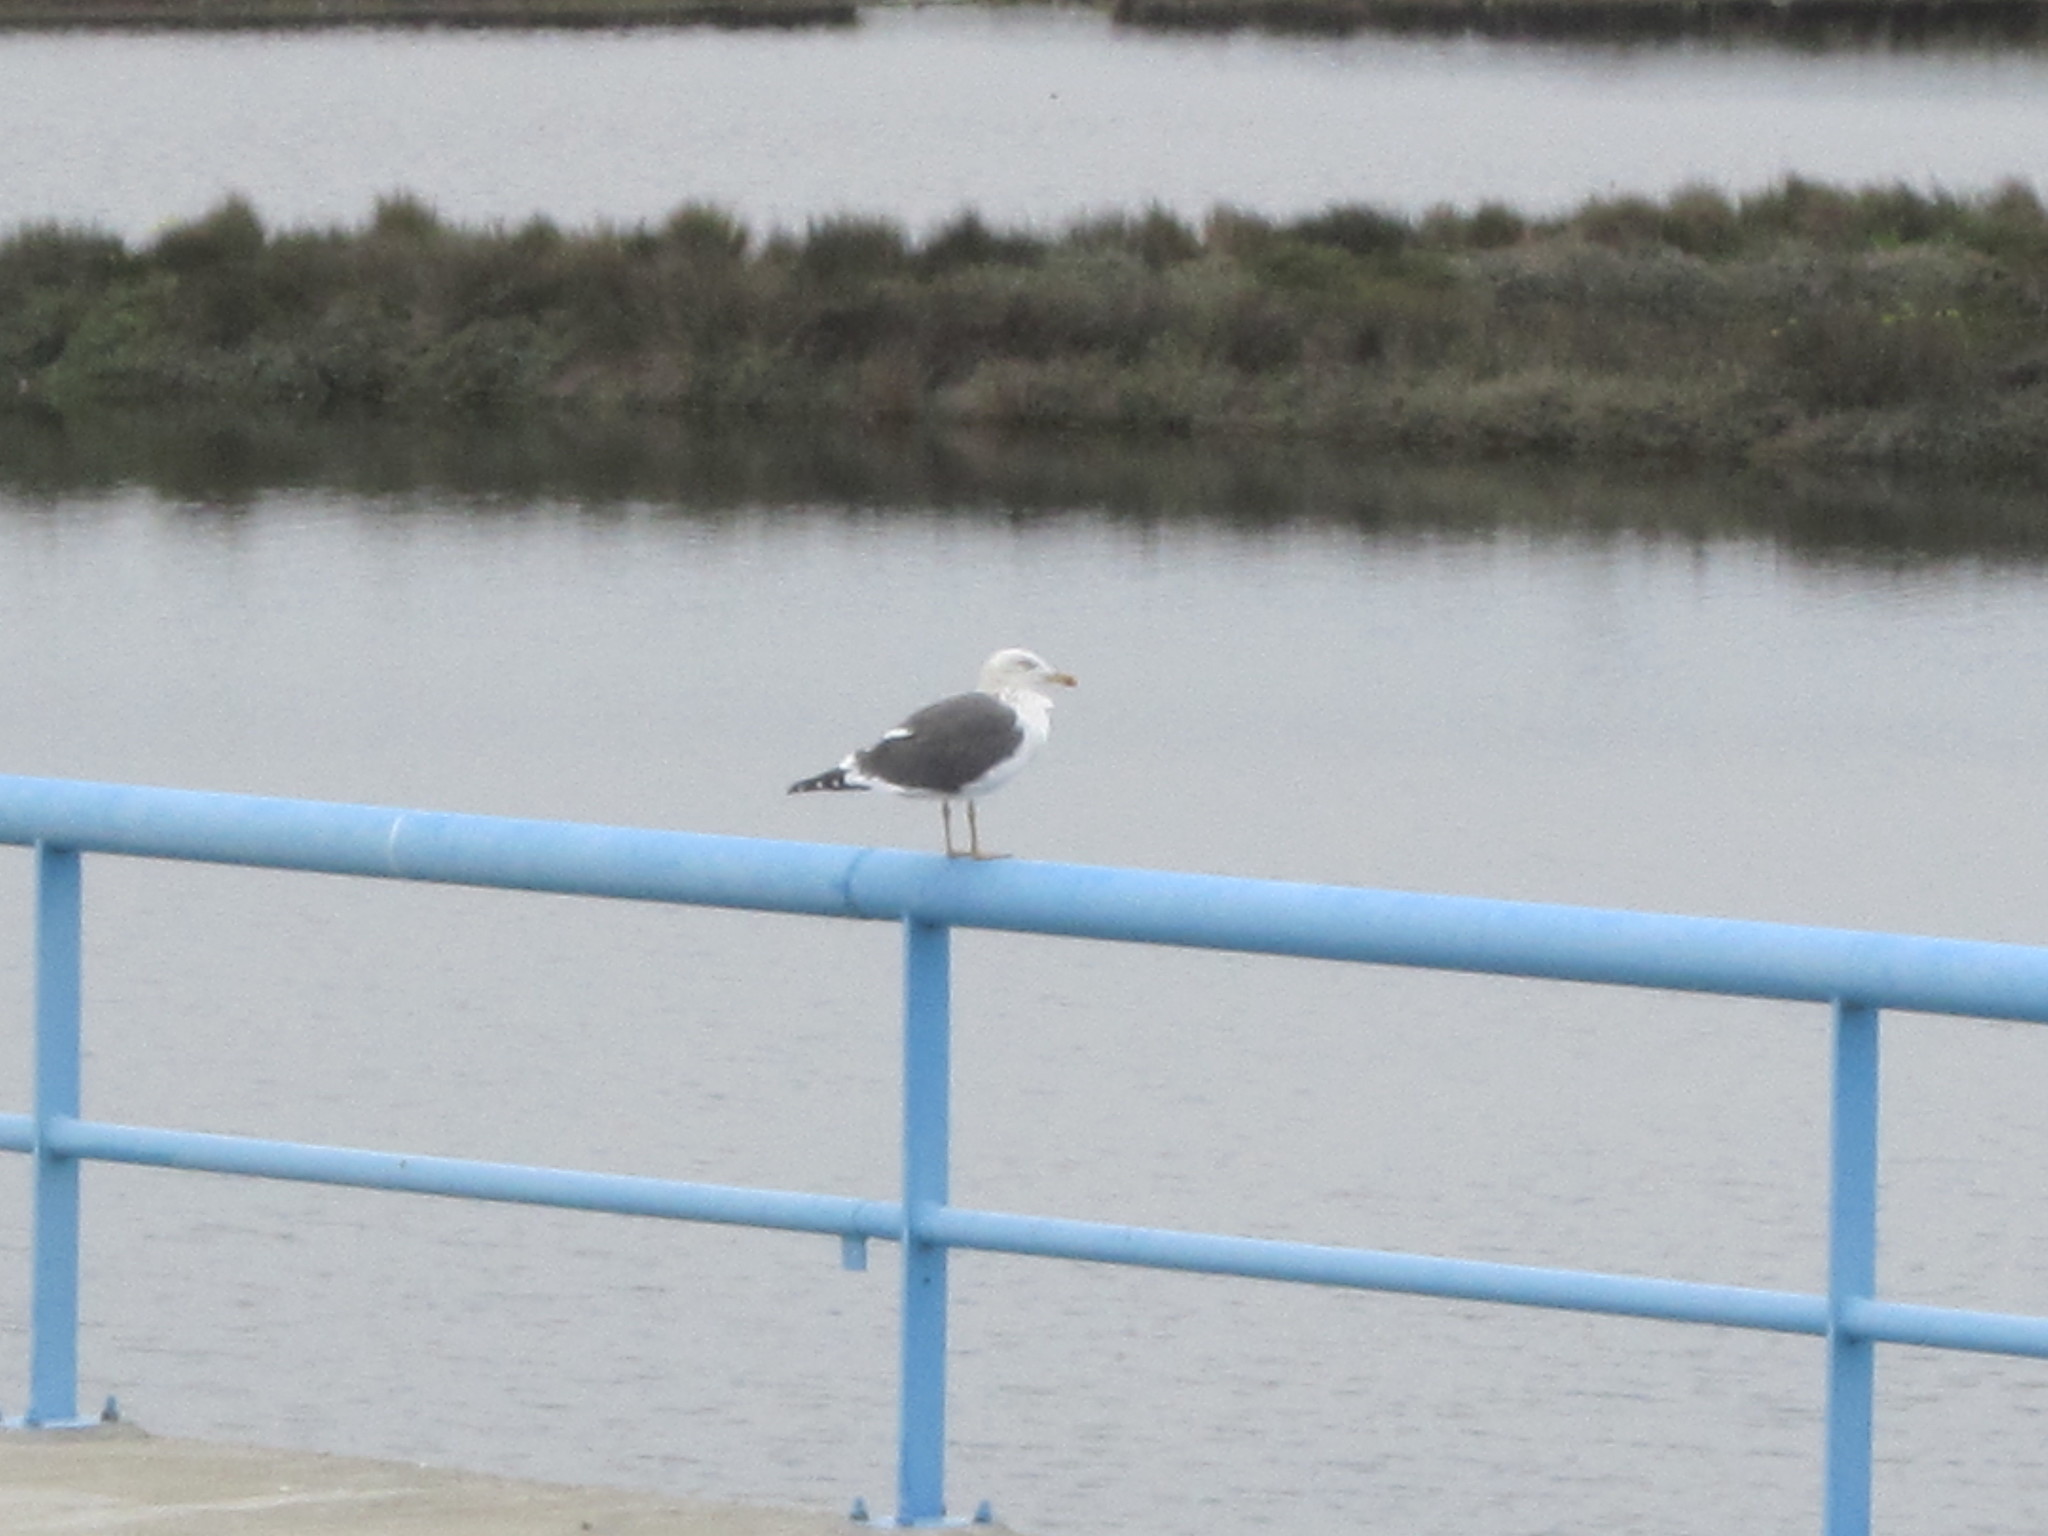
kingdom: Animalia
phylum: Chordata
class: Aves
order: Charadriiformes
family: Laridae
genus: Larus
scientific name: Larus fuscus
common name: Lesser black-backed gull
